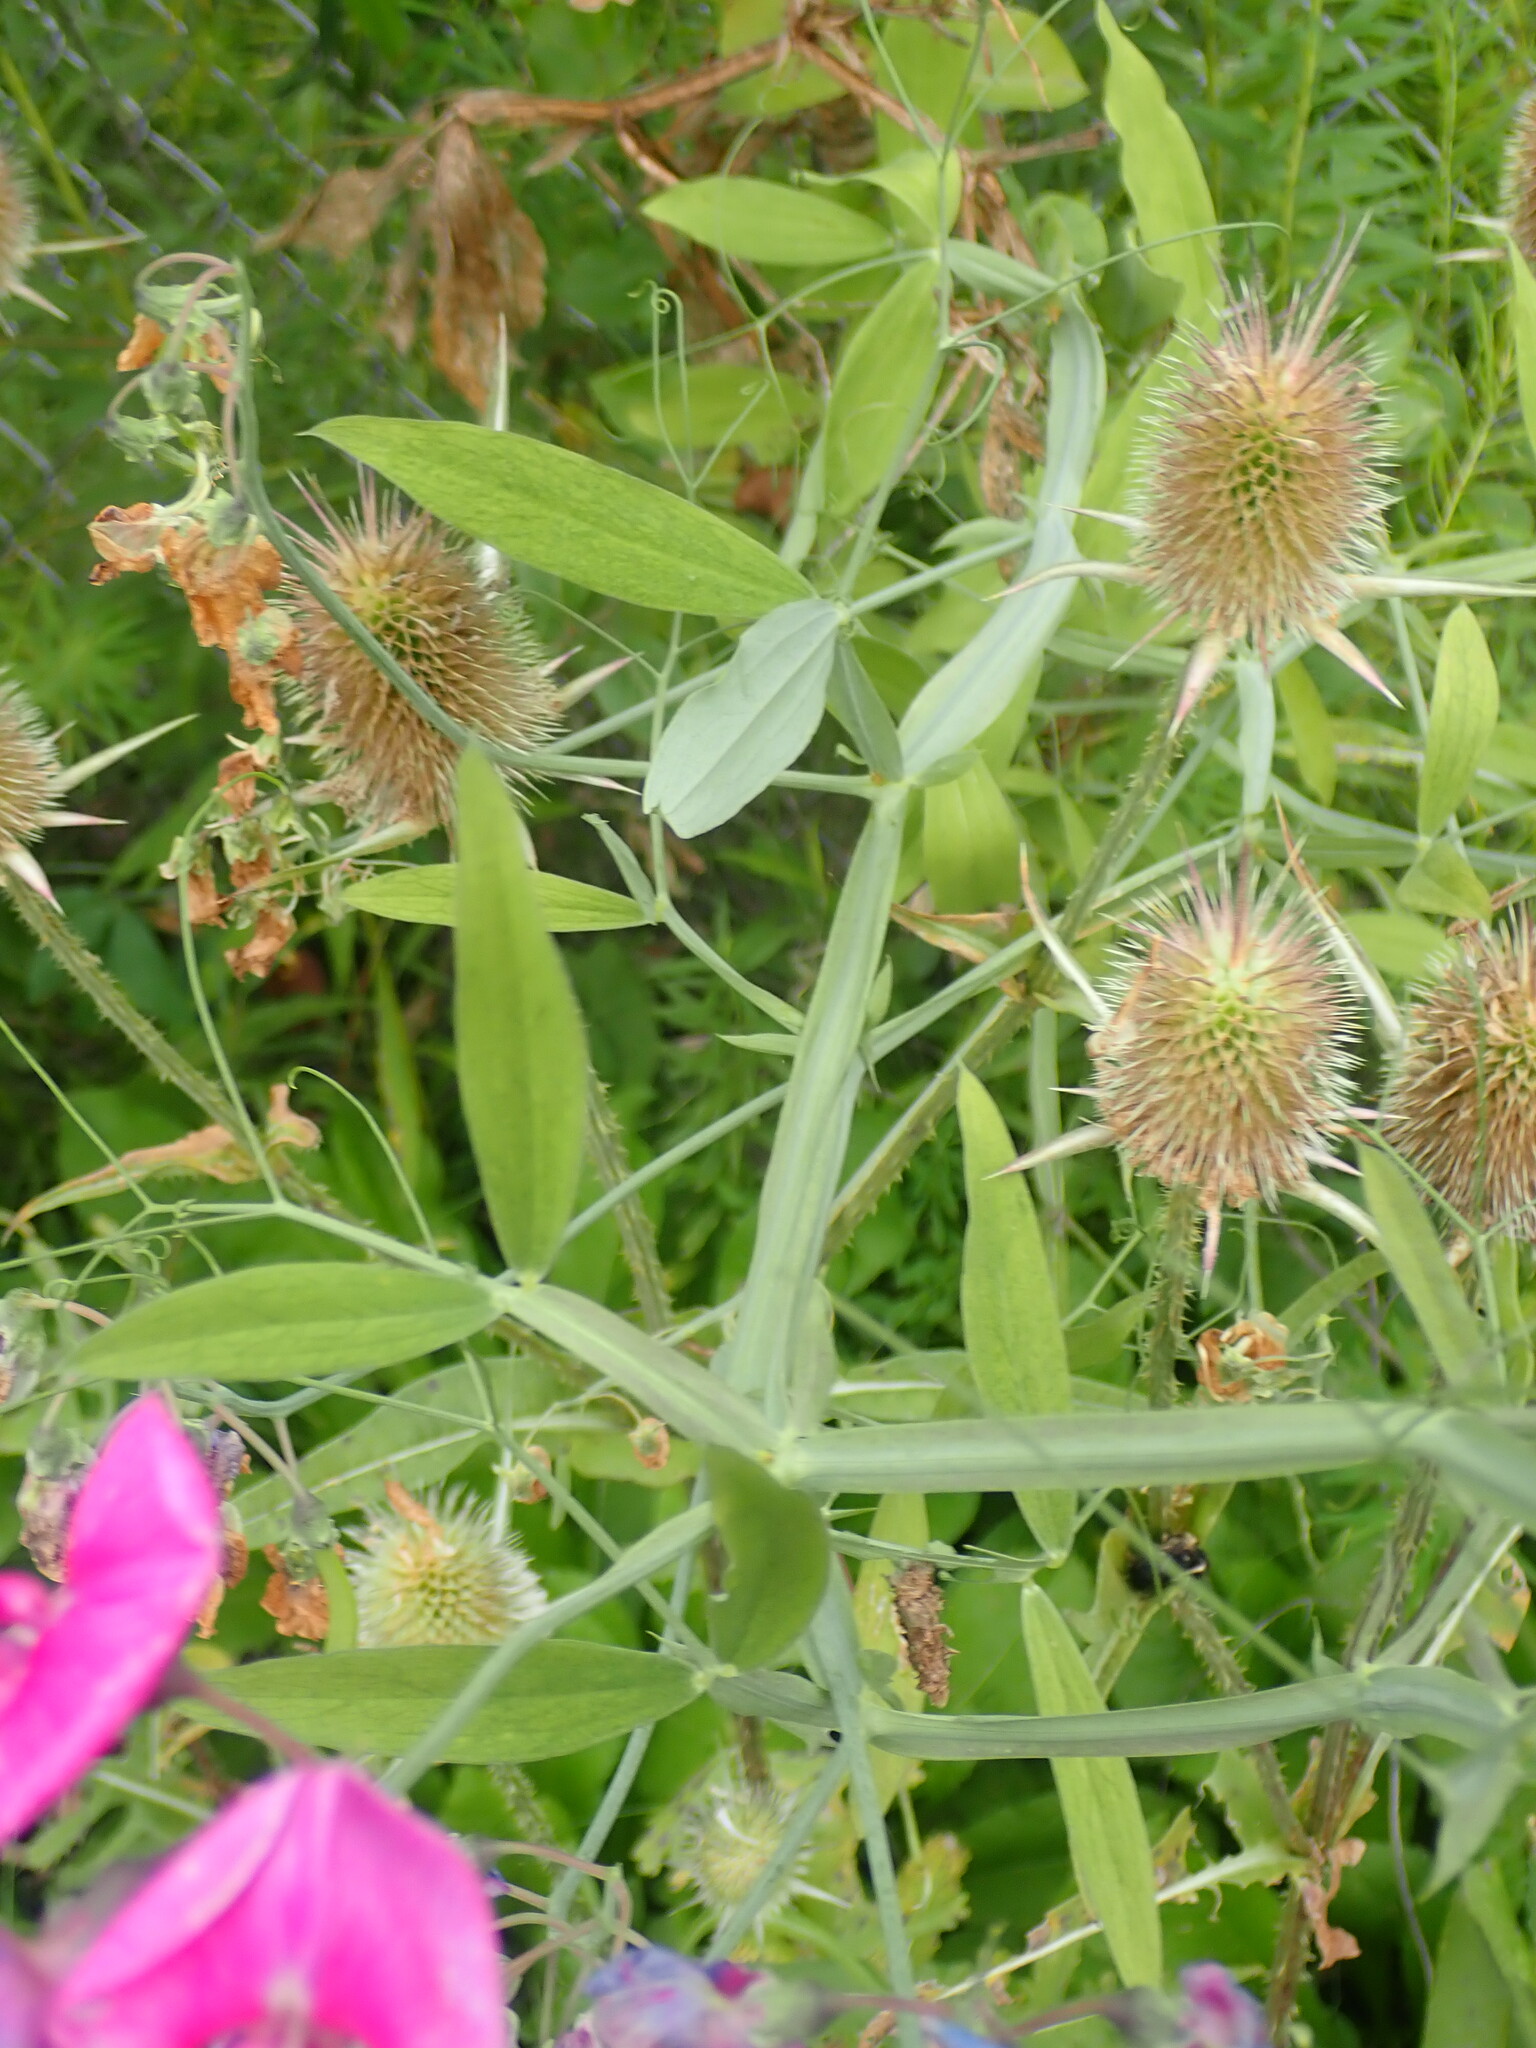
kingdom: Plantae
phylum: Tracheophyta
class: Magnoliopsida
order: Fabales
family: Fabaceae
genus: Lathyrus
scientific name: Lathyrus latifolius
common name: Perennial pea
